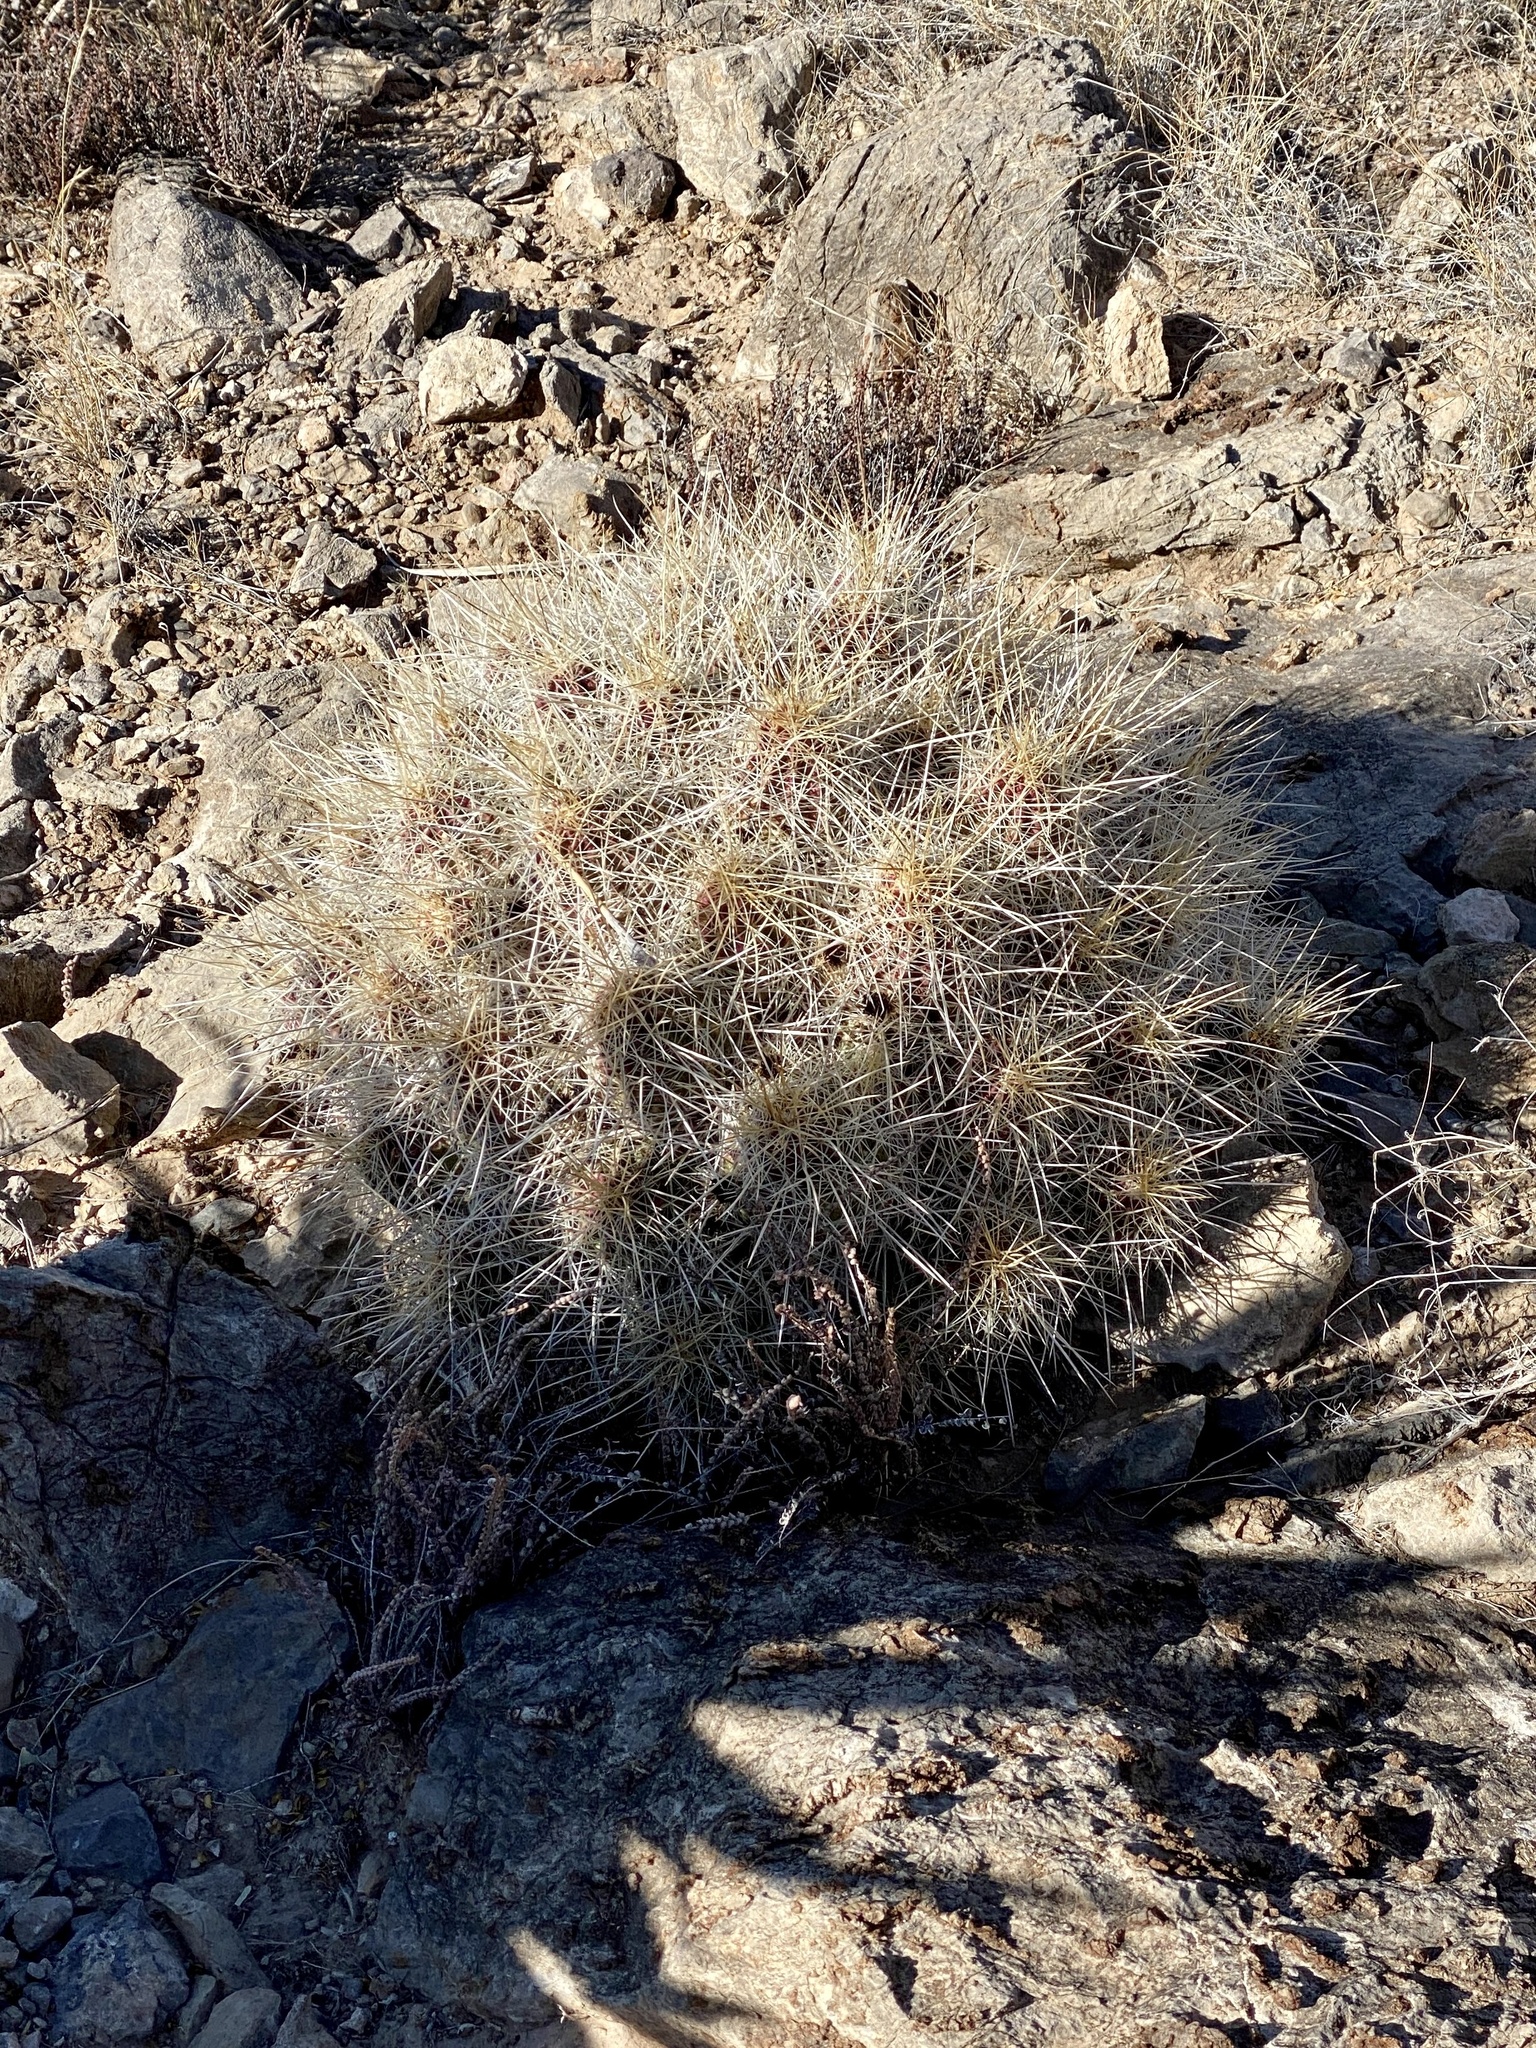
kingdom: Plantae
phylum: Tracheophyta
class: Magnoliopsida
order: Caryophyllales
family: Cactaceae
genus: Echinocereus
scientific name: Echinocereus stramineus
